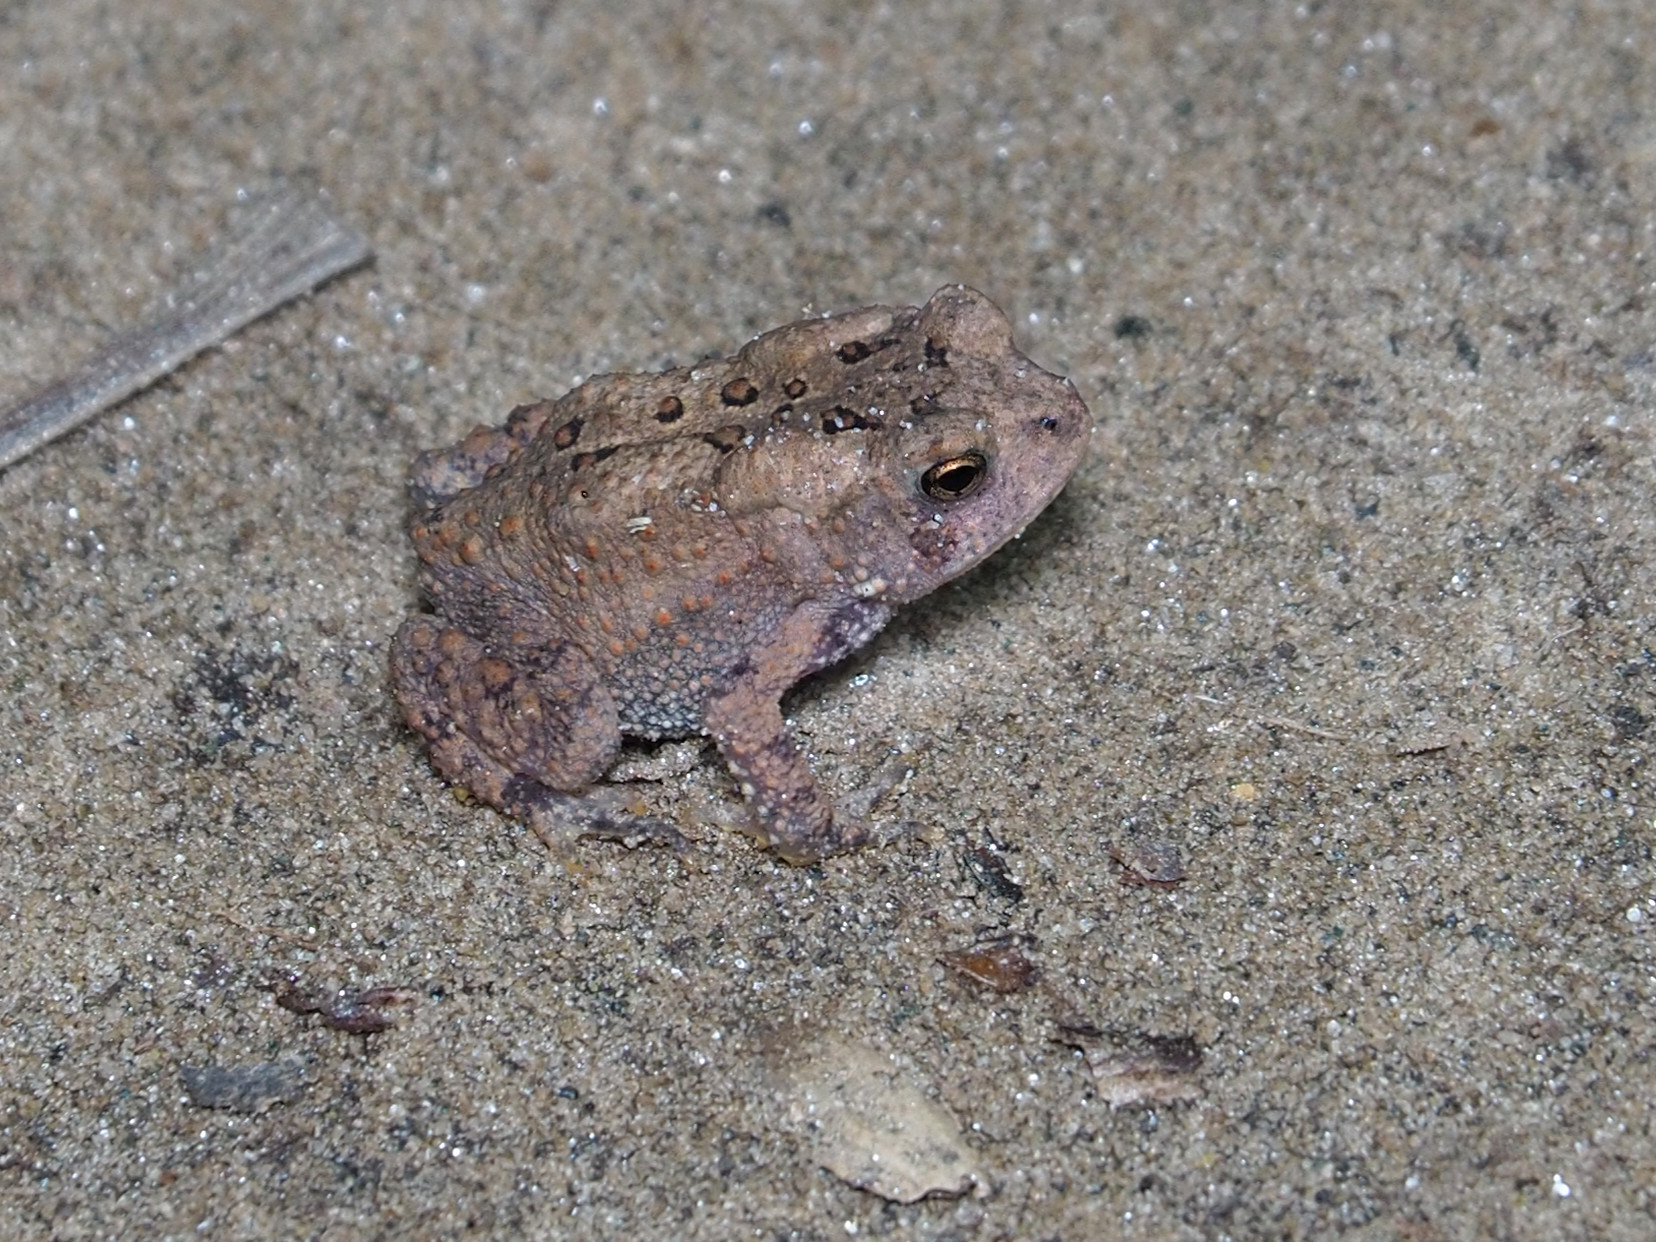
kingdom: Animalia
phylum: Chordata
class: Amphibia
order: Anura
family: Bufonidae
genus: Anaxyrus
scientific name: Anaxyrus americanus
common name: American toad
